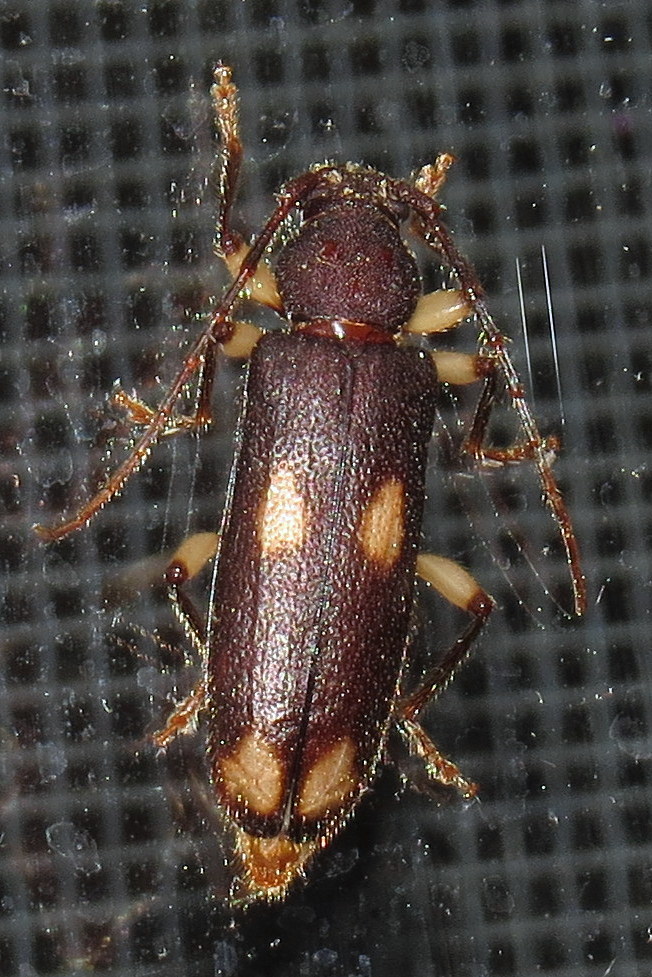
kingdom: Animalia
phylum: Arthropoda
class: Insecta
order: Coleoptera
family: Cerambycidae
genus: Tylonotus
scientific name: Tylonotus bimaculatus
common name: Ash and privet borer
